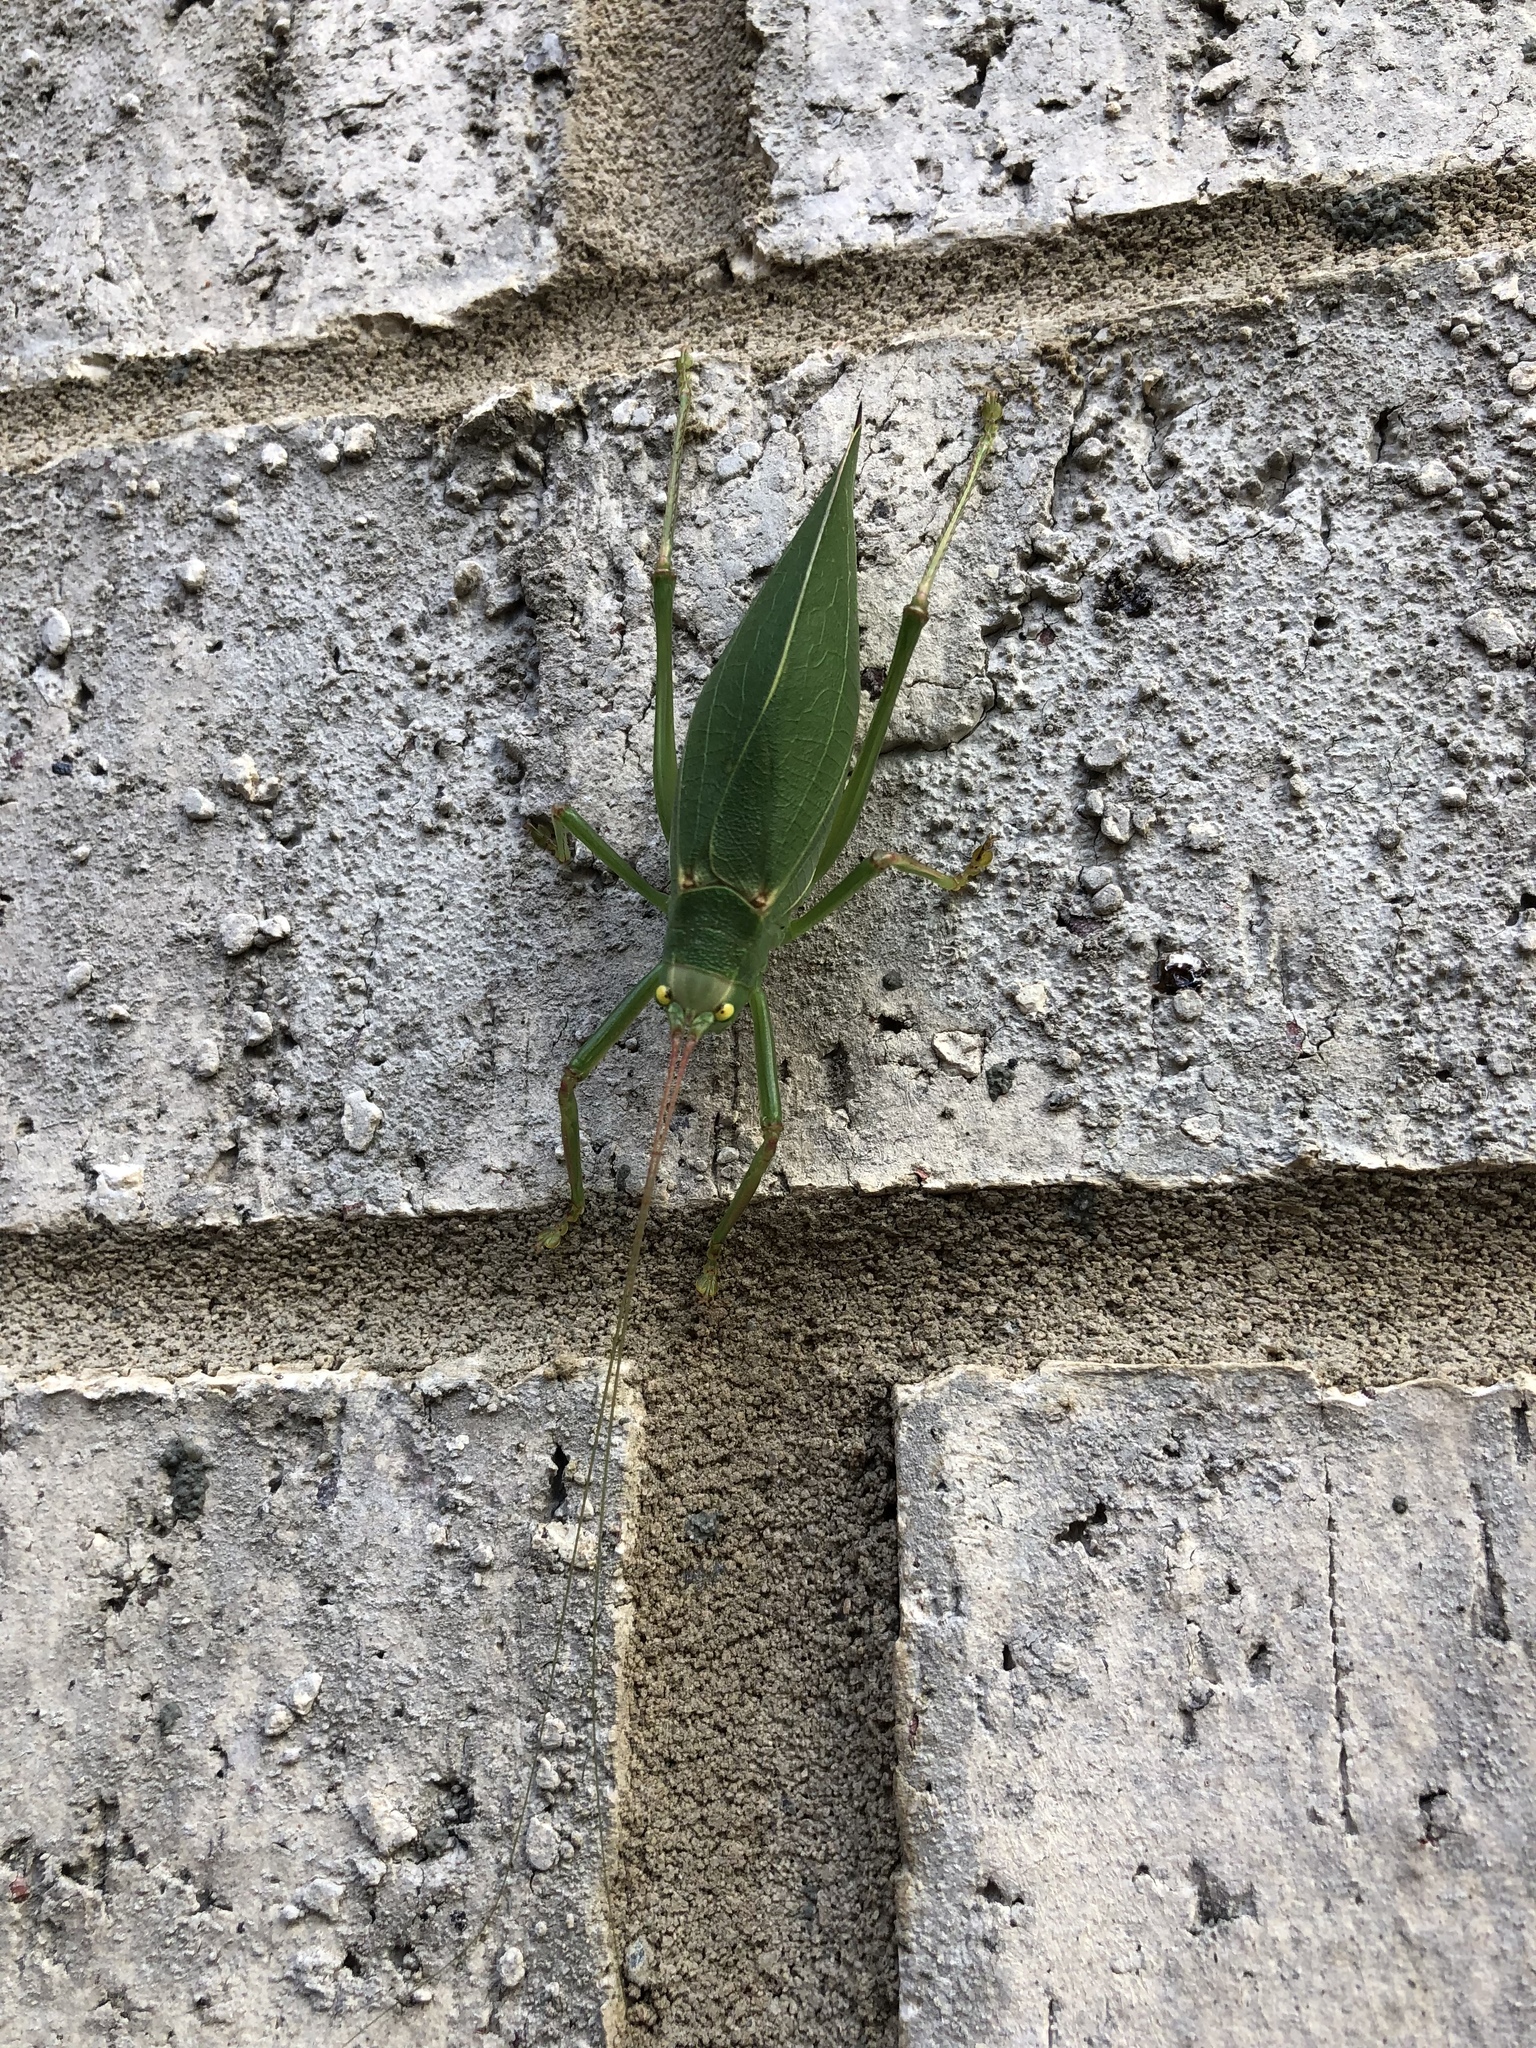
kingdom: Animalia
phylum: Arthropoda
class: Insecta
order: Orthoptera
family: Tettigoniidae
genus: Pterophylla
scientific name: Pterophylla camellifolia
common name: Common true katydid
